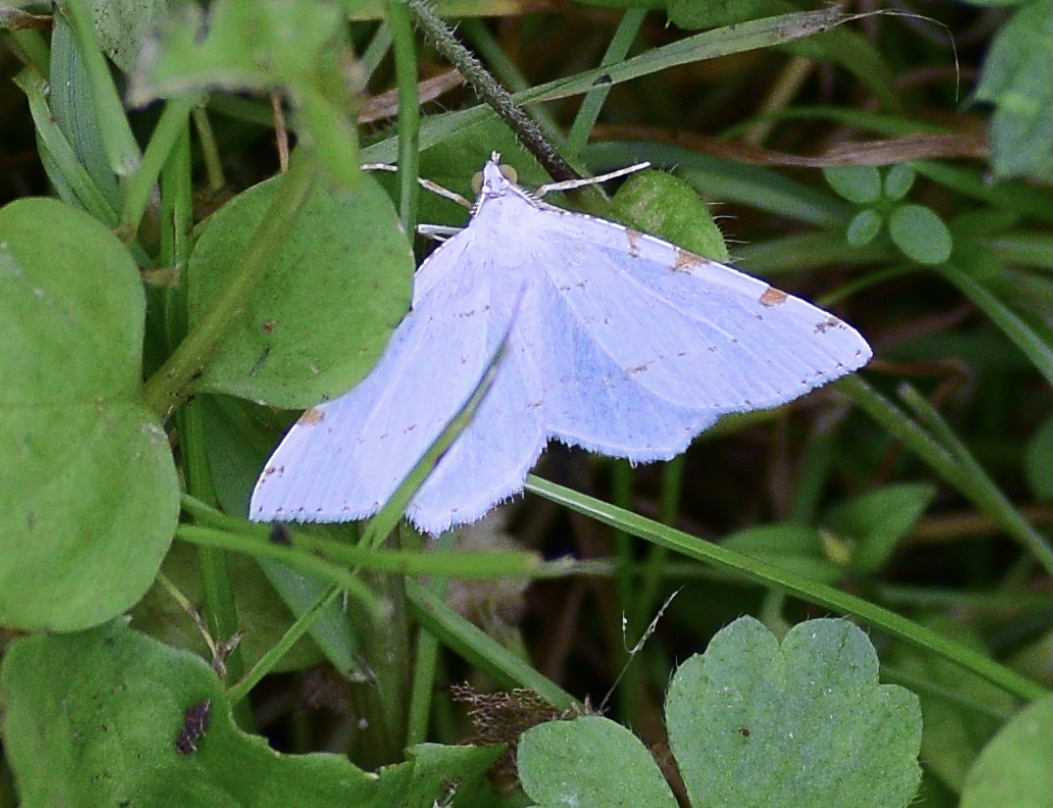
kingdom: Animalia
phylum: Arthropoda
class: Insecta
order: Lepidoptera
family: Geometridae
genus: Macaria
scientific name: Macaria pustularia
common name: Lesser maple spanworm moth
